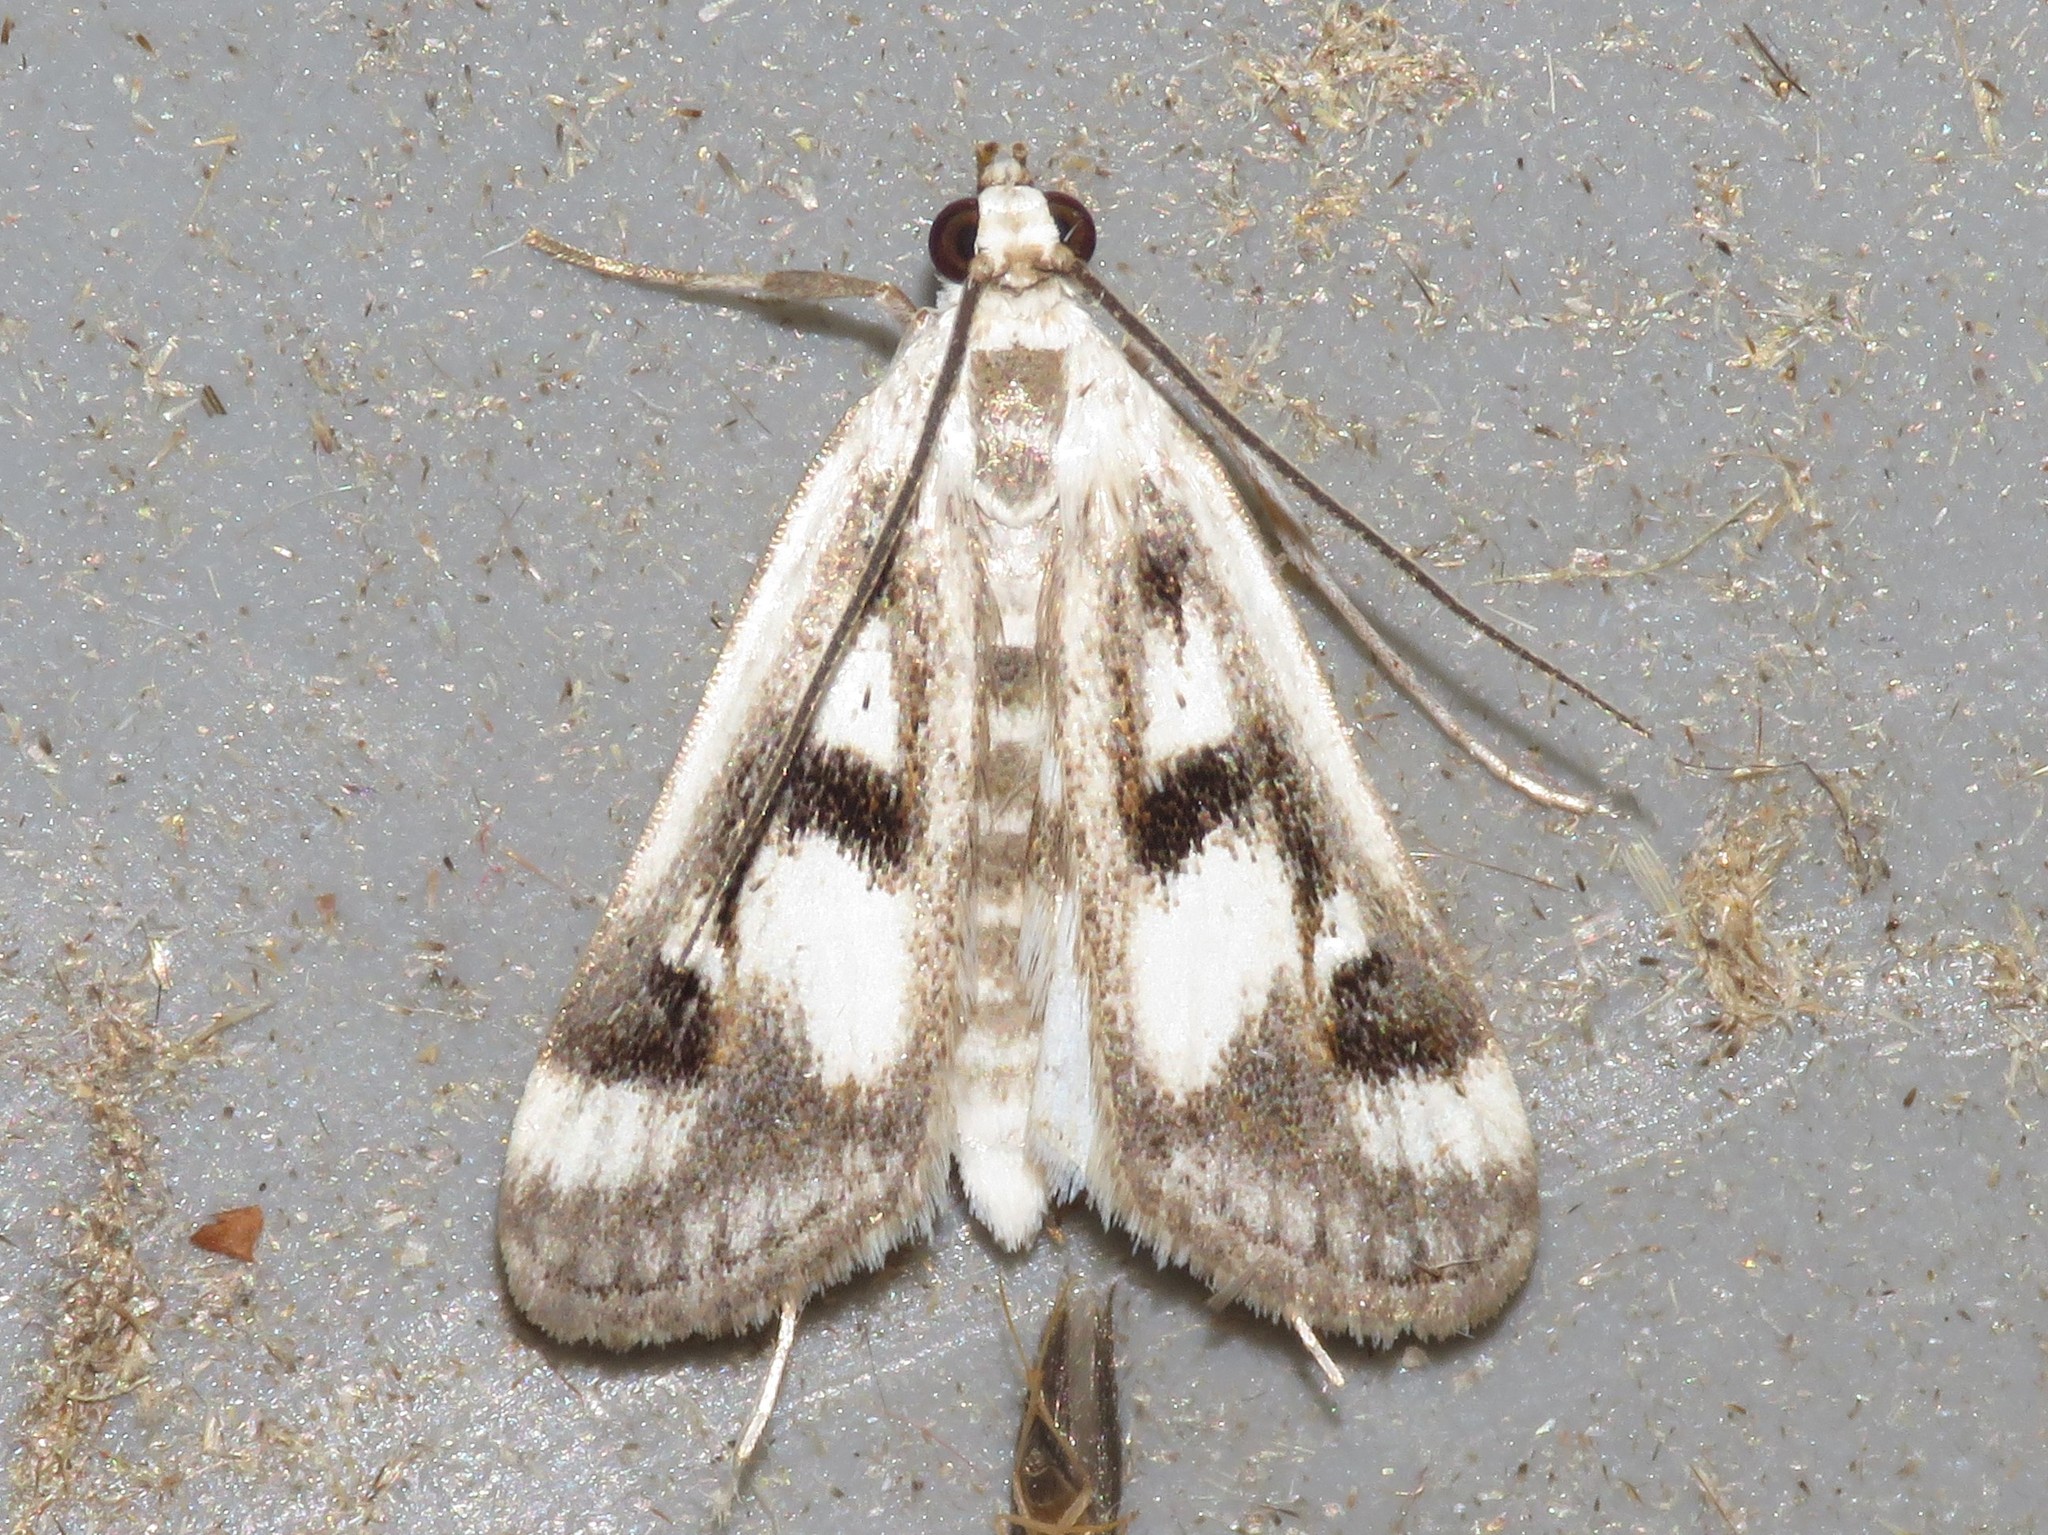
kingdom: Animalia
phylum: Arthropoda
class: Insecta
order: Lepidoptera
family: Crambidae
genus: Parapoynx
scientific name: Parapoynx maculalis
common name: Polymorphic pondweed moth
